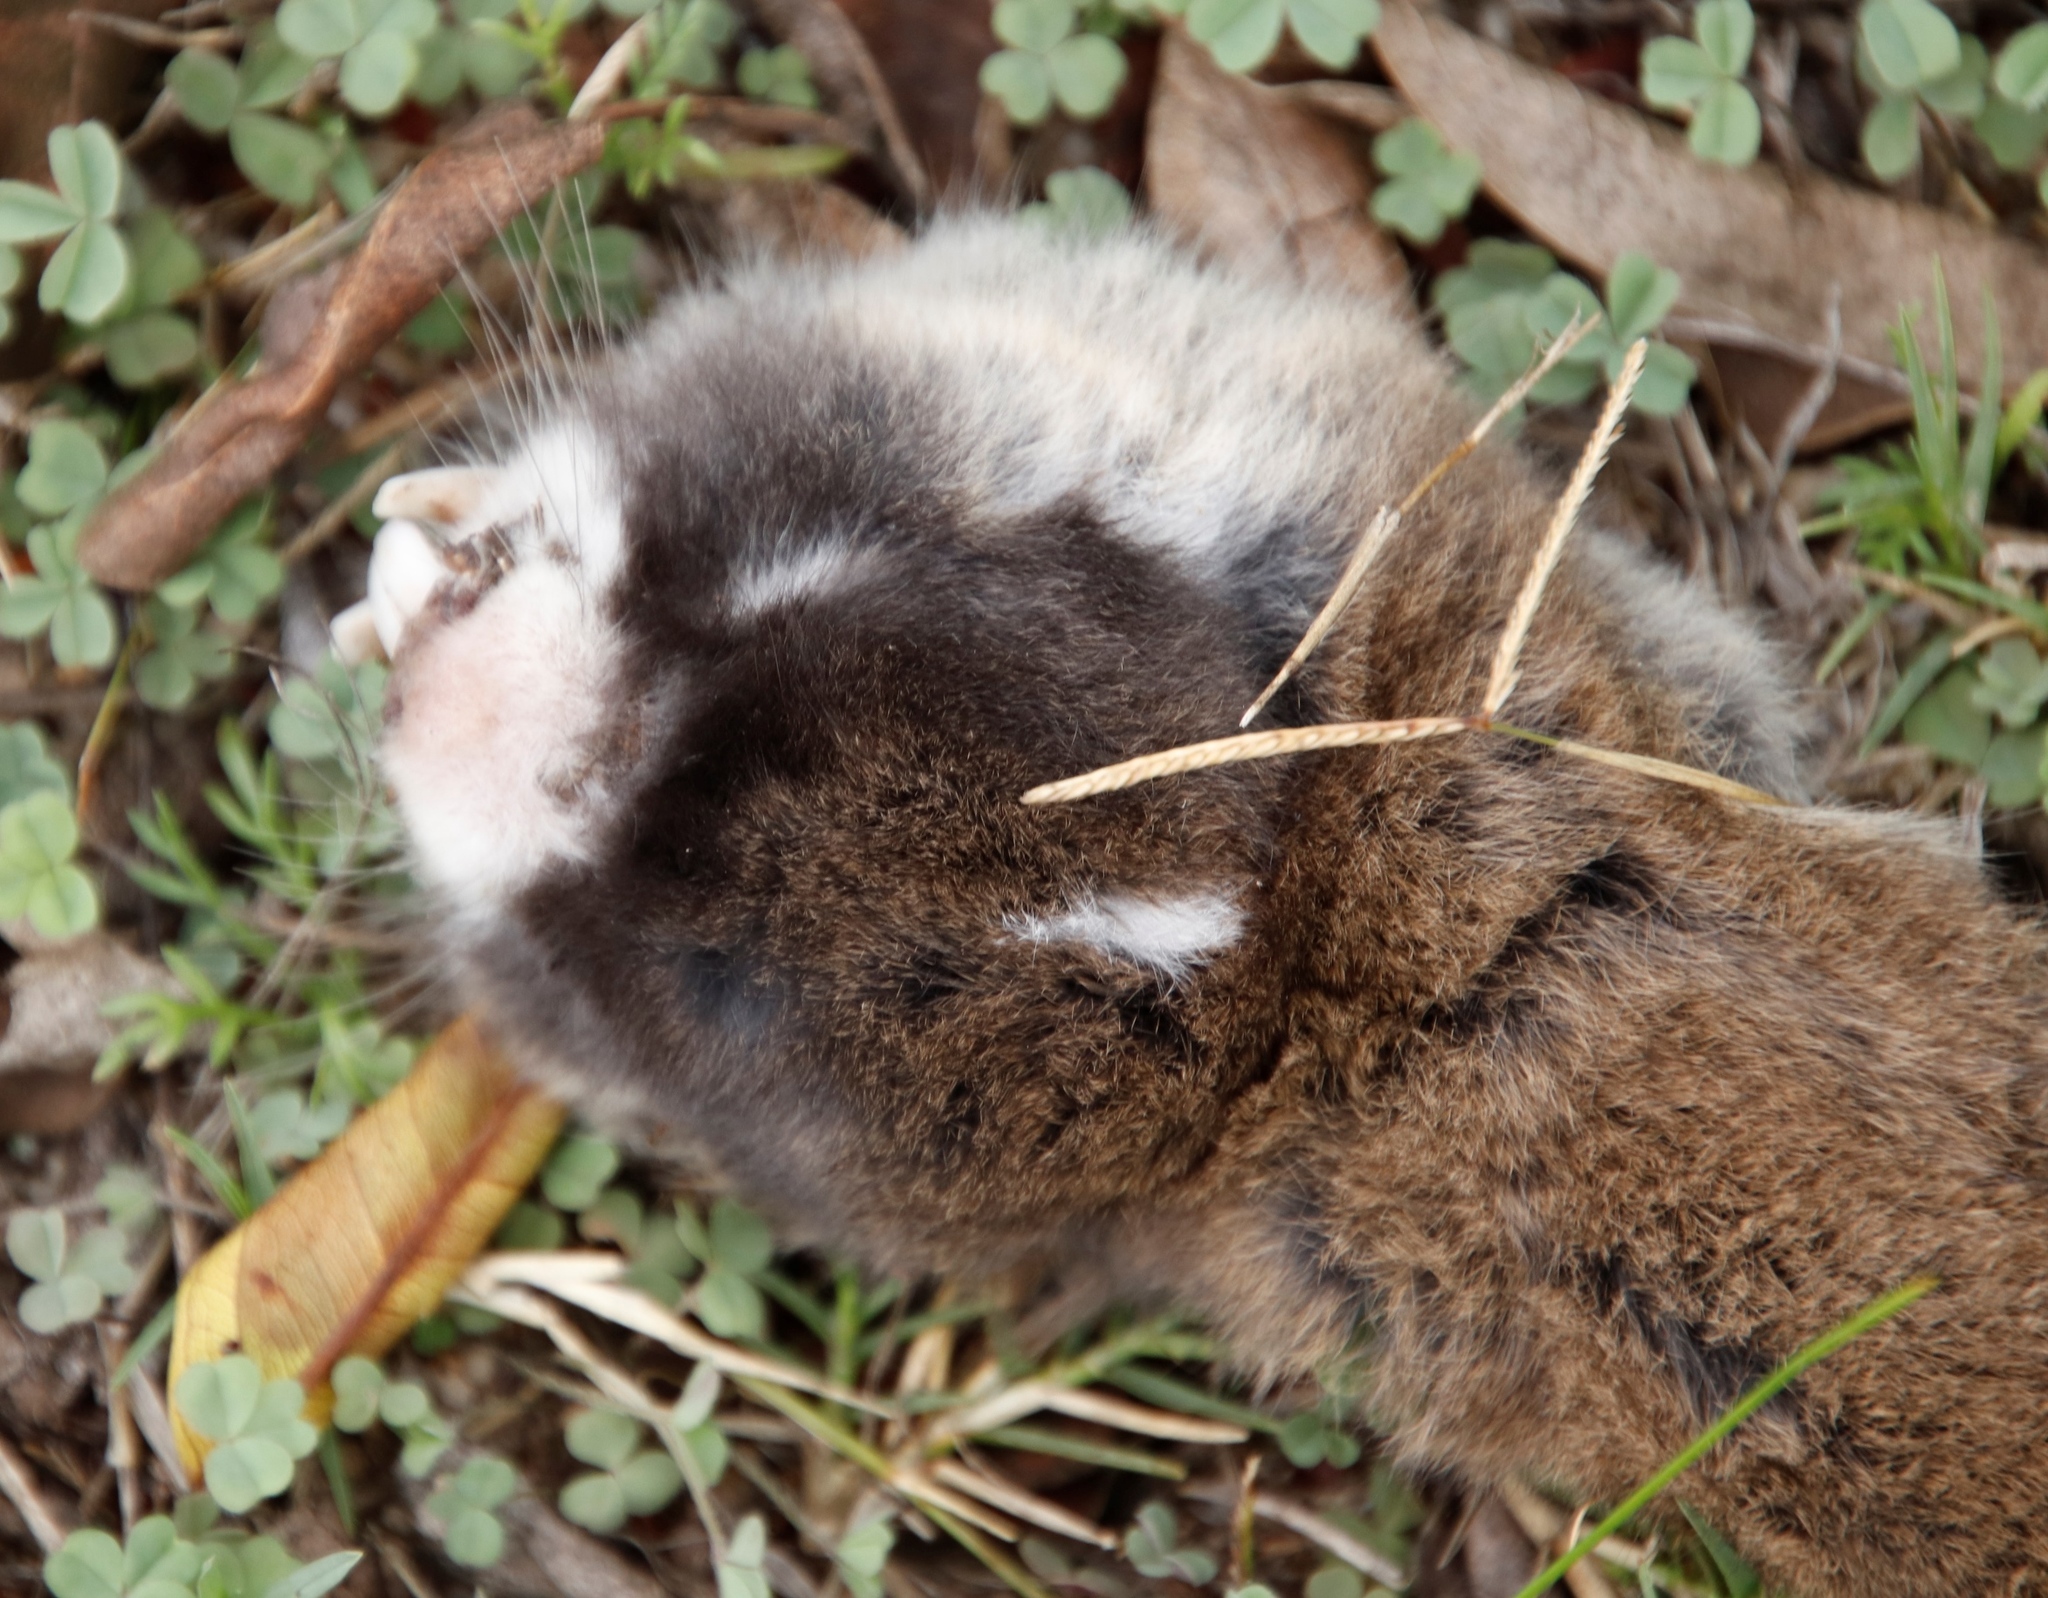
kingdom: Animalia
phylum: Chordata
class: Mammalia
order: Rodentia
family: Bathyergidae
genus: Georychus
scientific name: Georychus capensis
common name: Cape mole-rat
